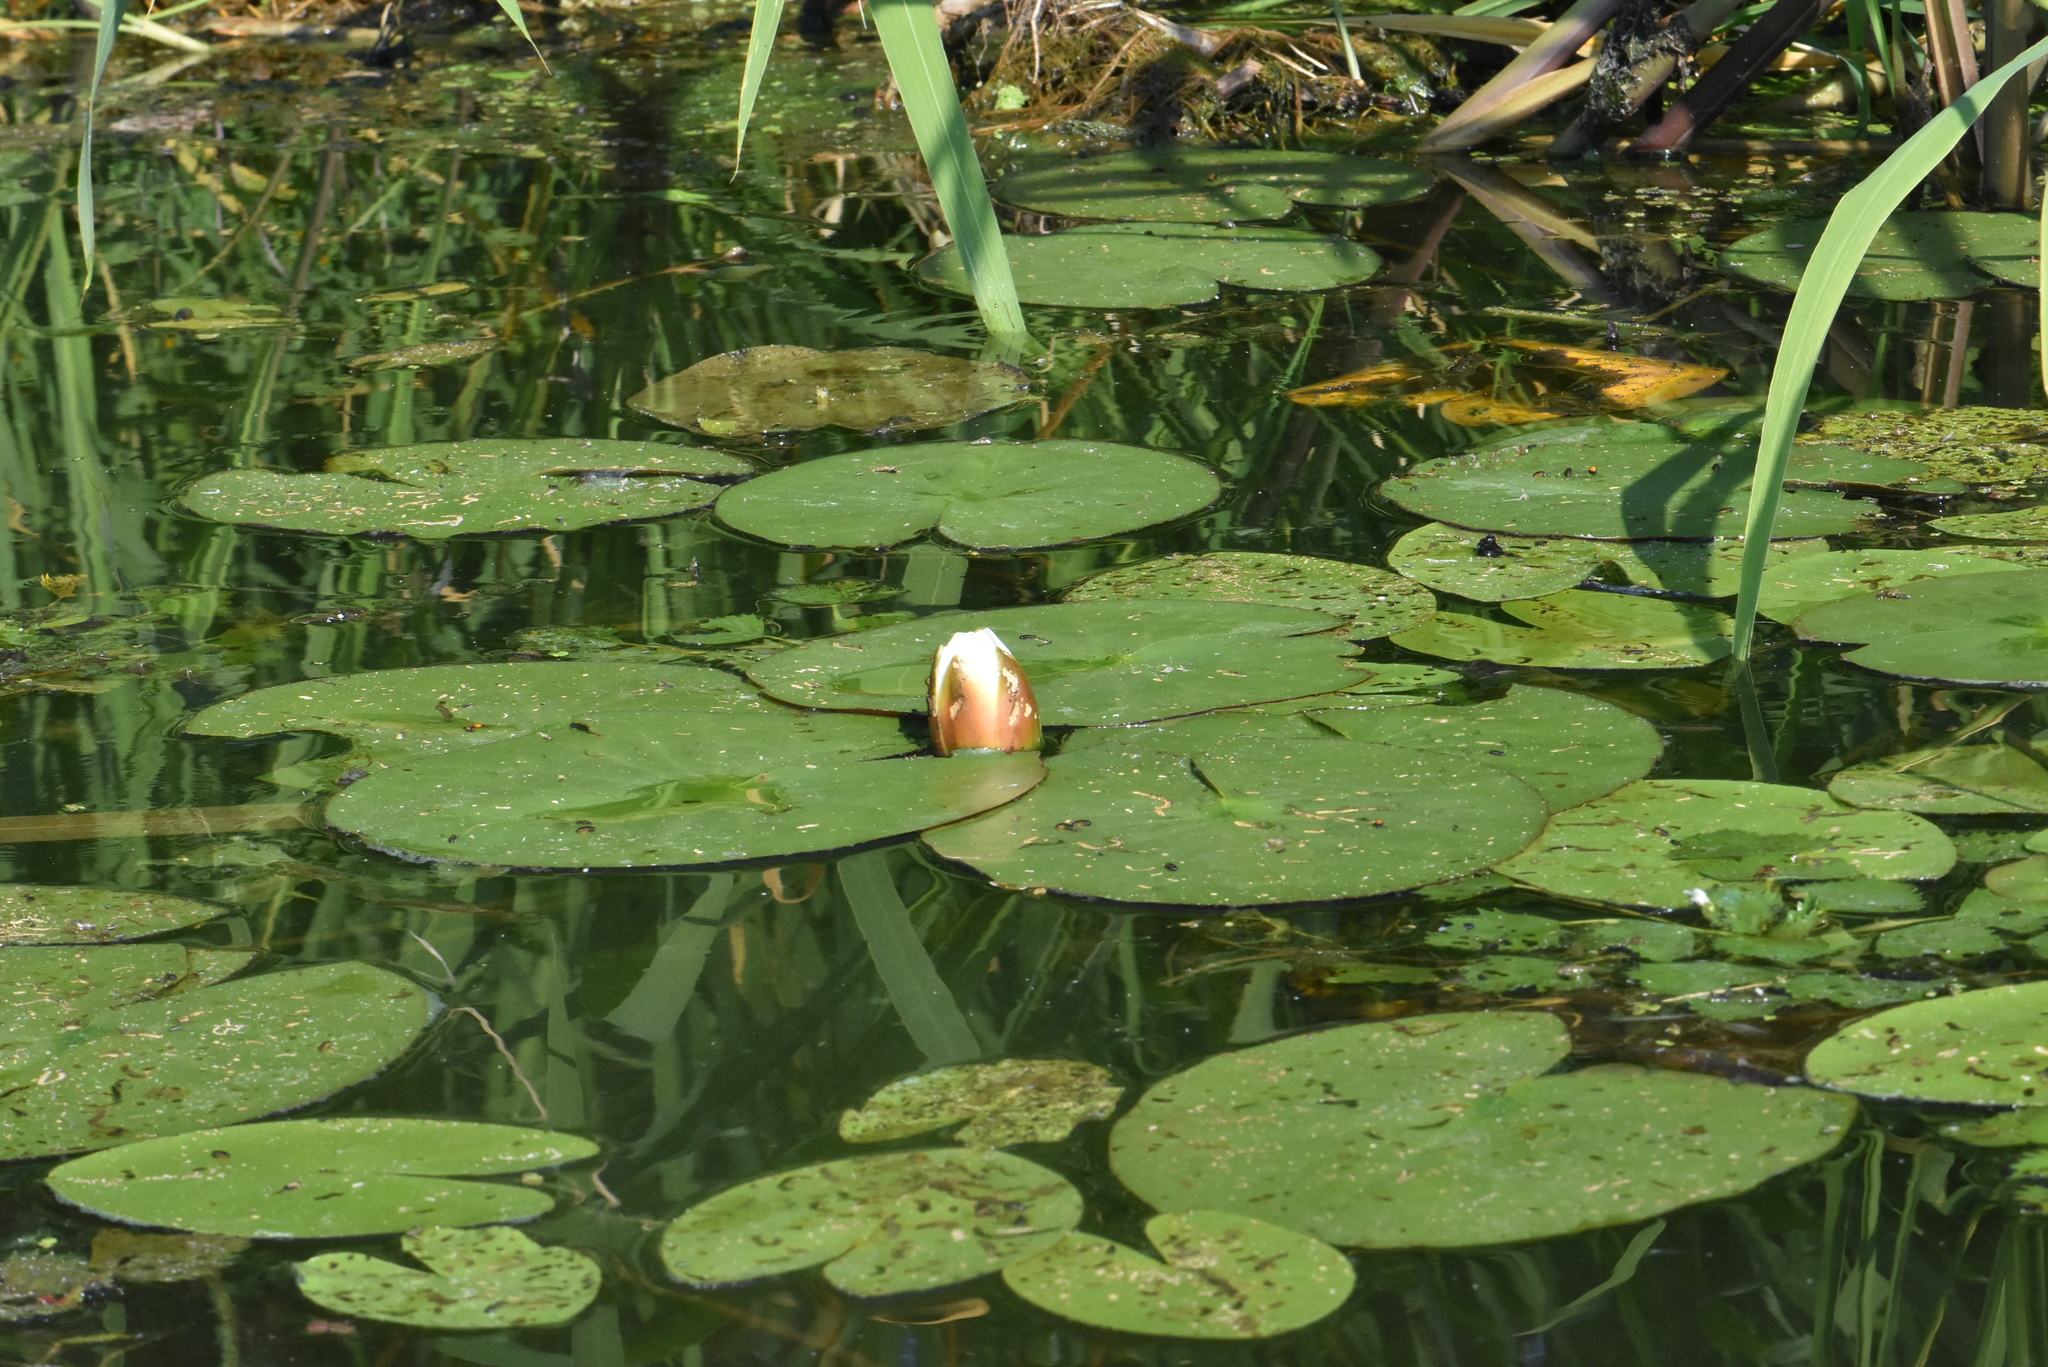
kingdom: Plantae
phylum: Tracheophyta
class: Magnoliopsida
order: Nymphaeales
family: Nymphaeaceae
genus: Nymphaea
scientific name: Nymphaea candida
